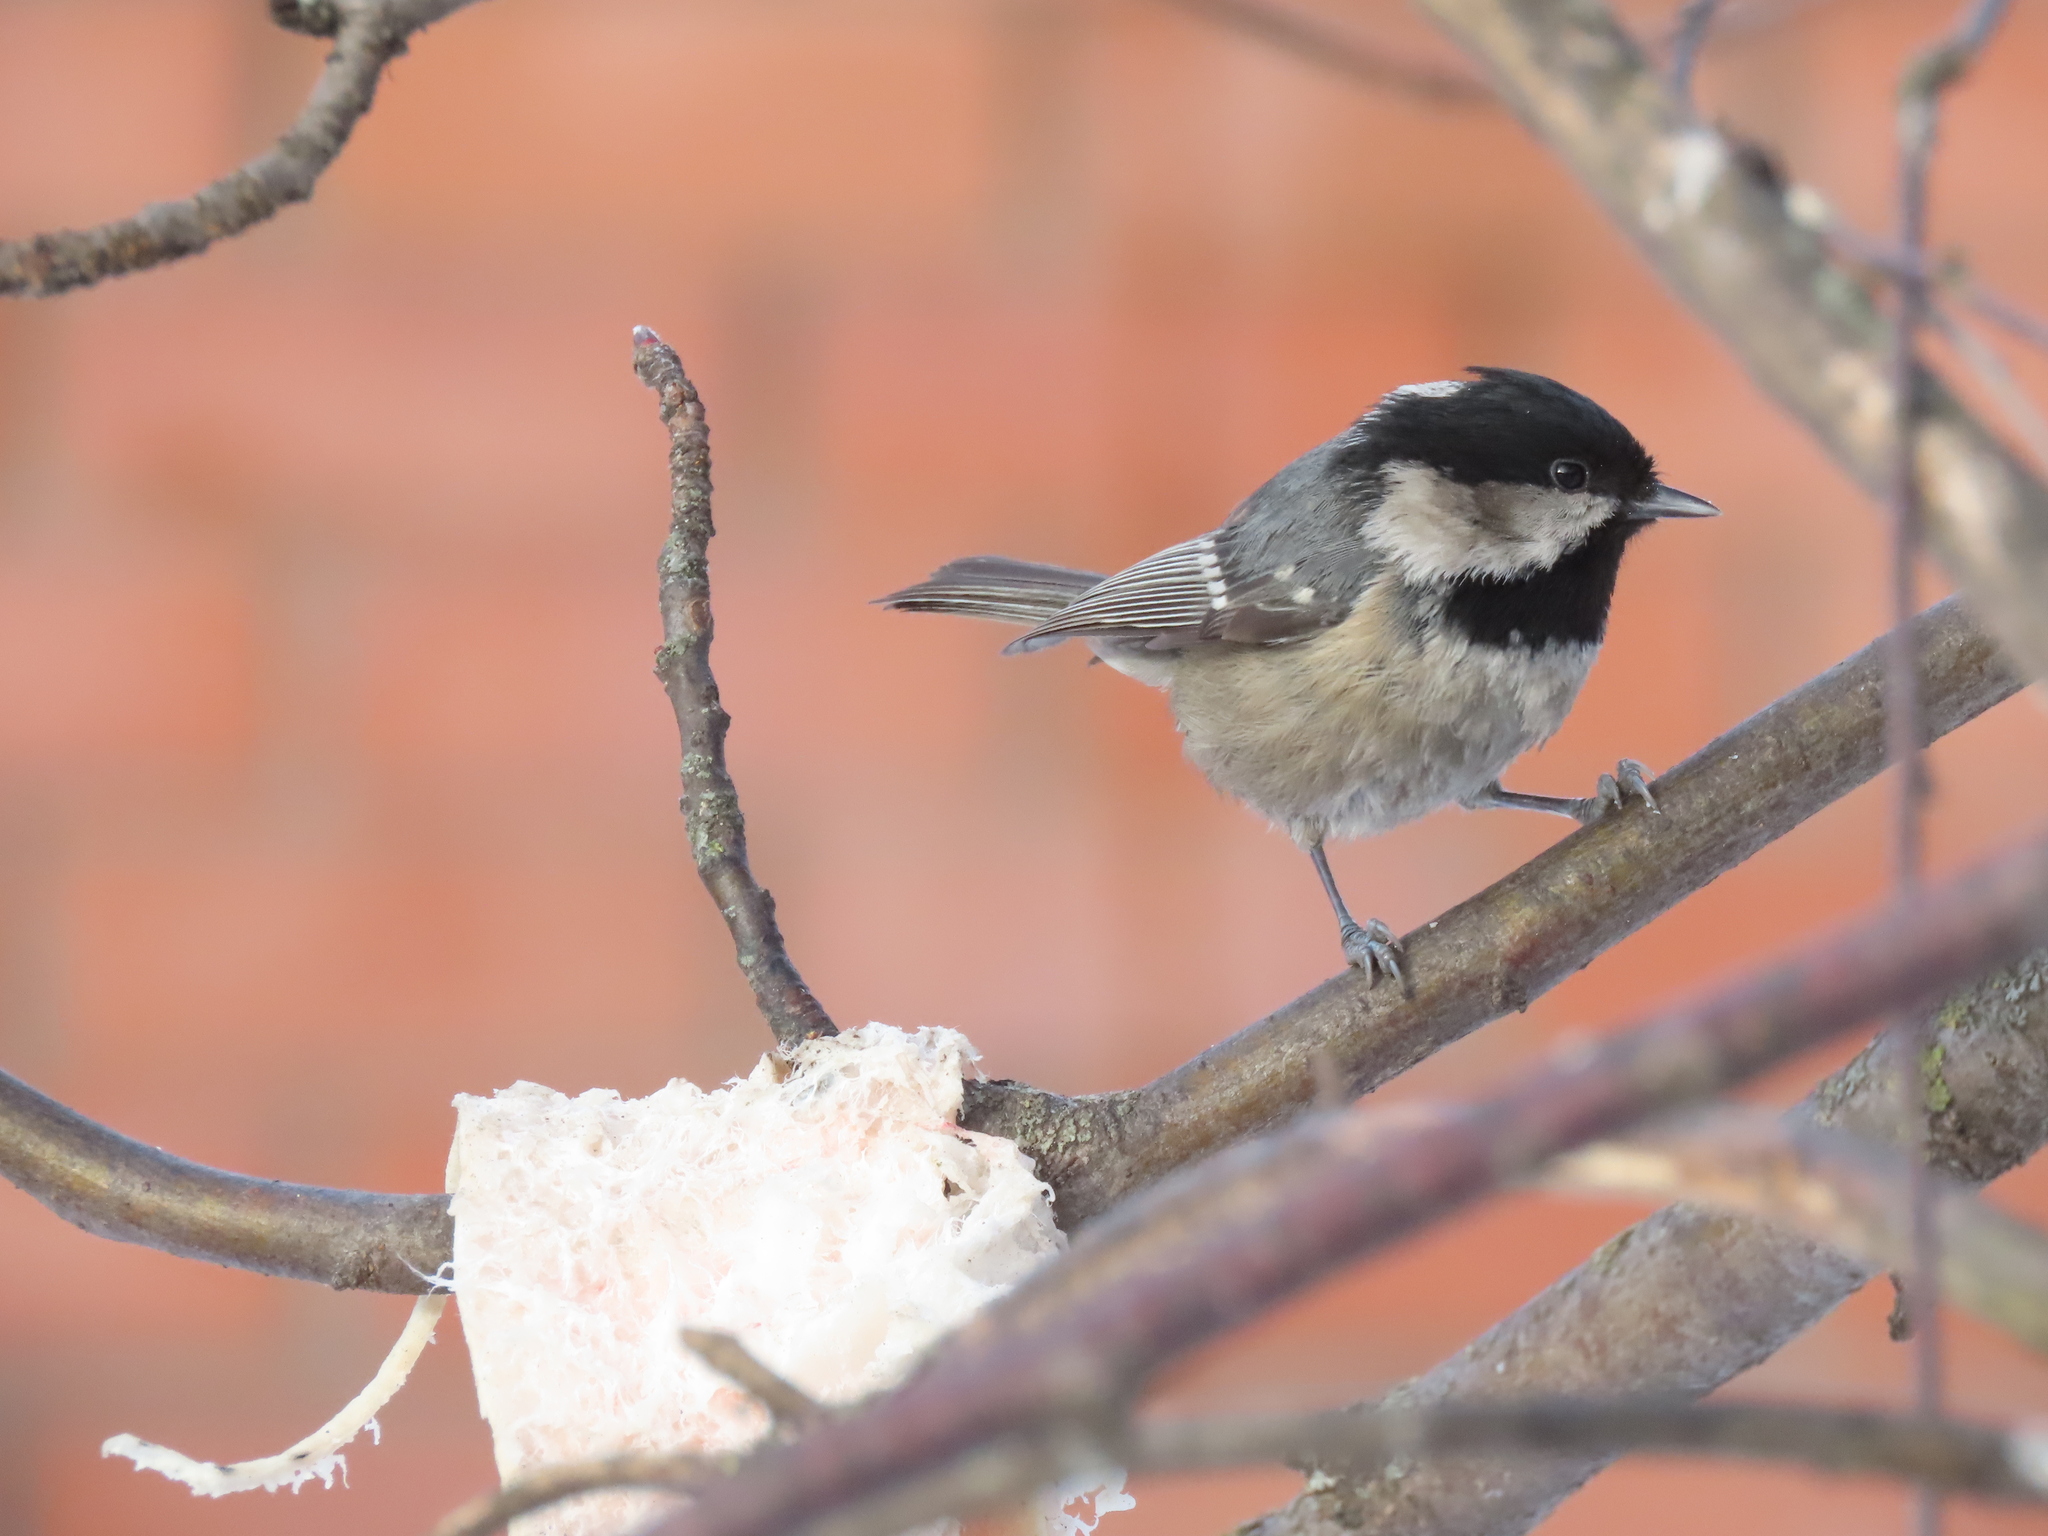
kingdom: Animalia
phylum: Chordata
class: Aves
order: Passeriformes
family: Paridae
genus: Periparus
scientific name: Periparus ater
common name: Coal tit
